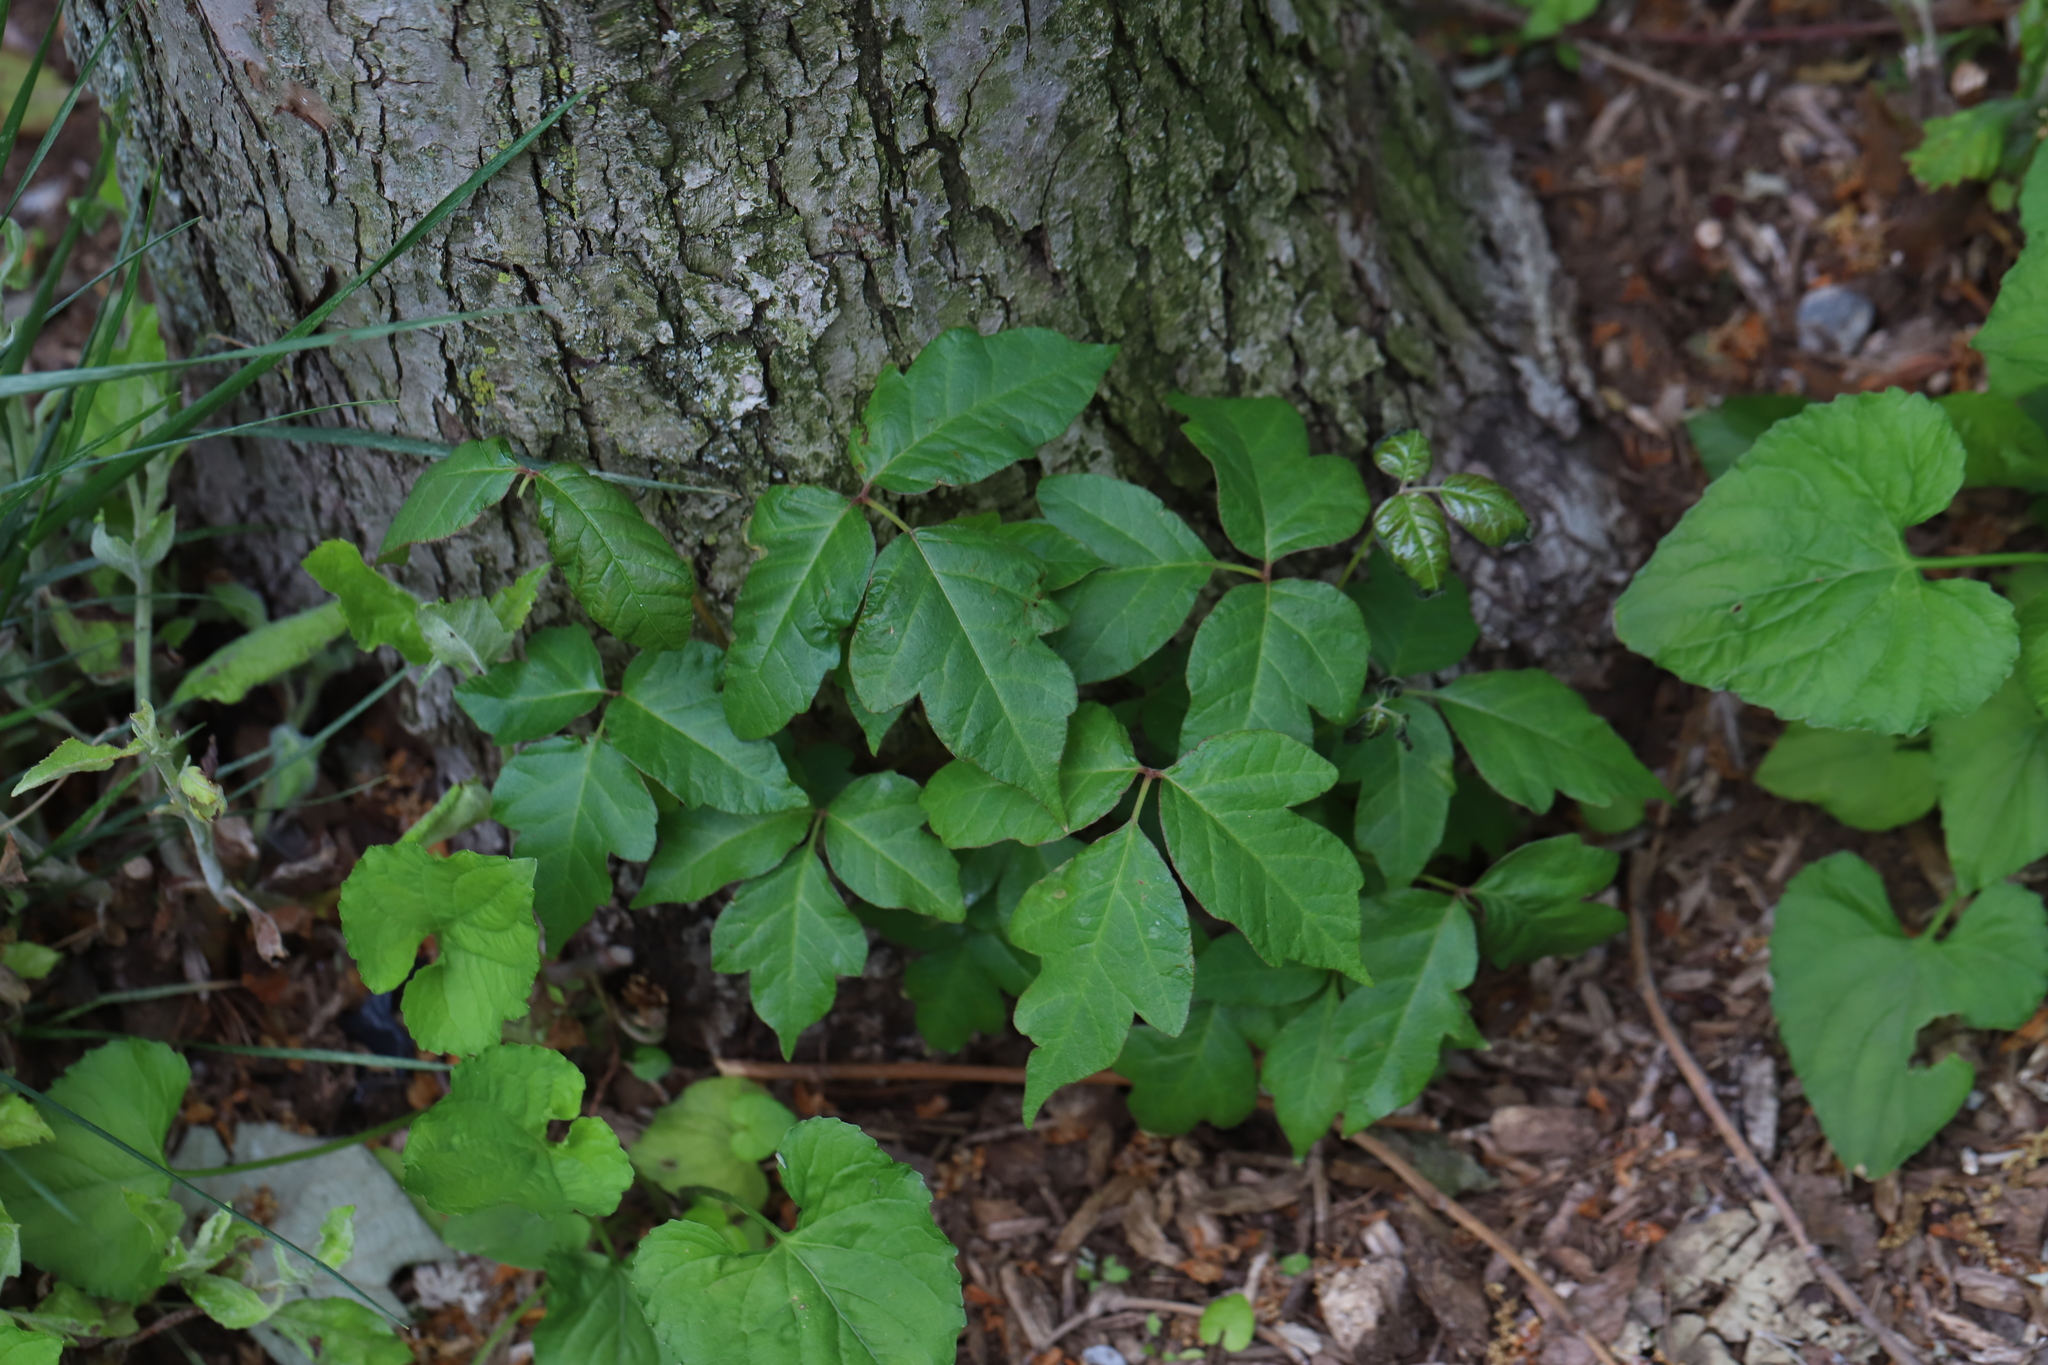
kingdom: Plantae
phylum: Tracheophyta
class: Magnoliopsida
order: Sapindales
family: Anacardiaceae
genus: Toxicodendron
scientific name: Toxicodendron radicans
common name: Poison ivy
